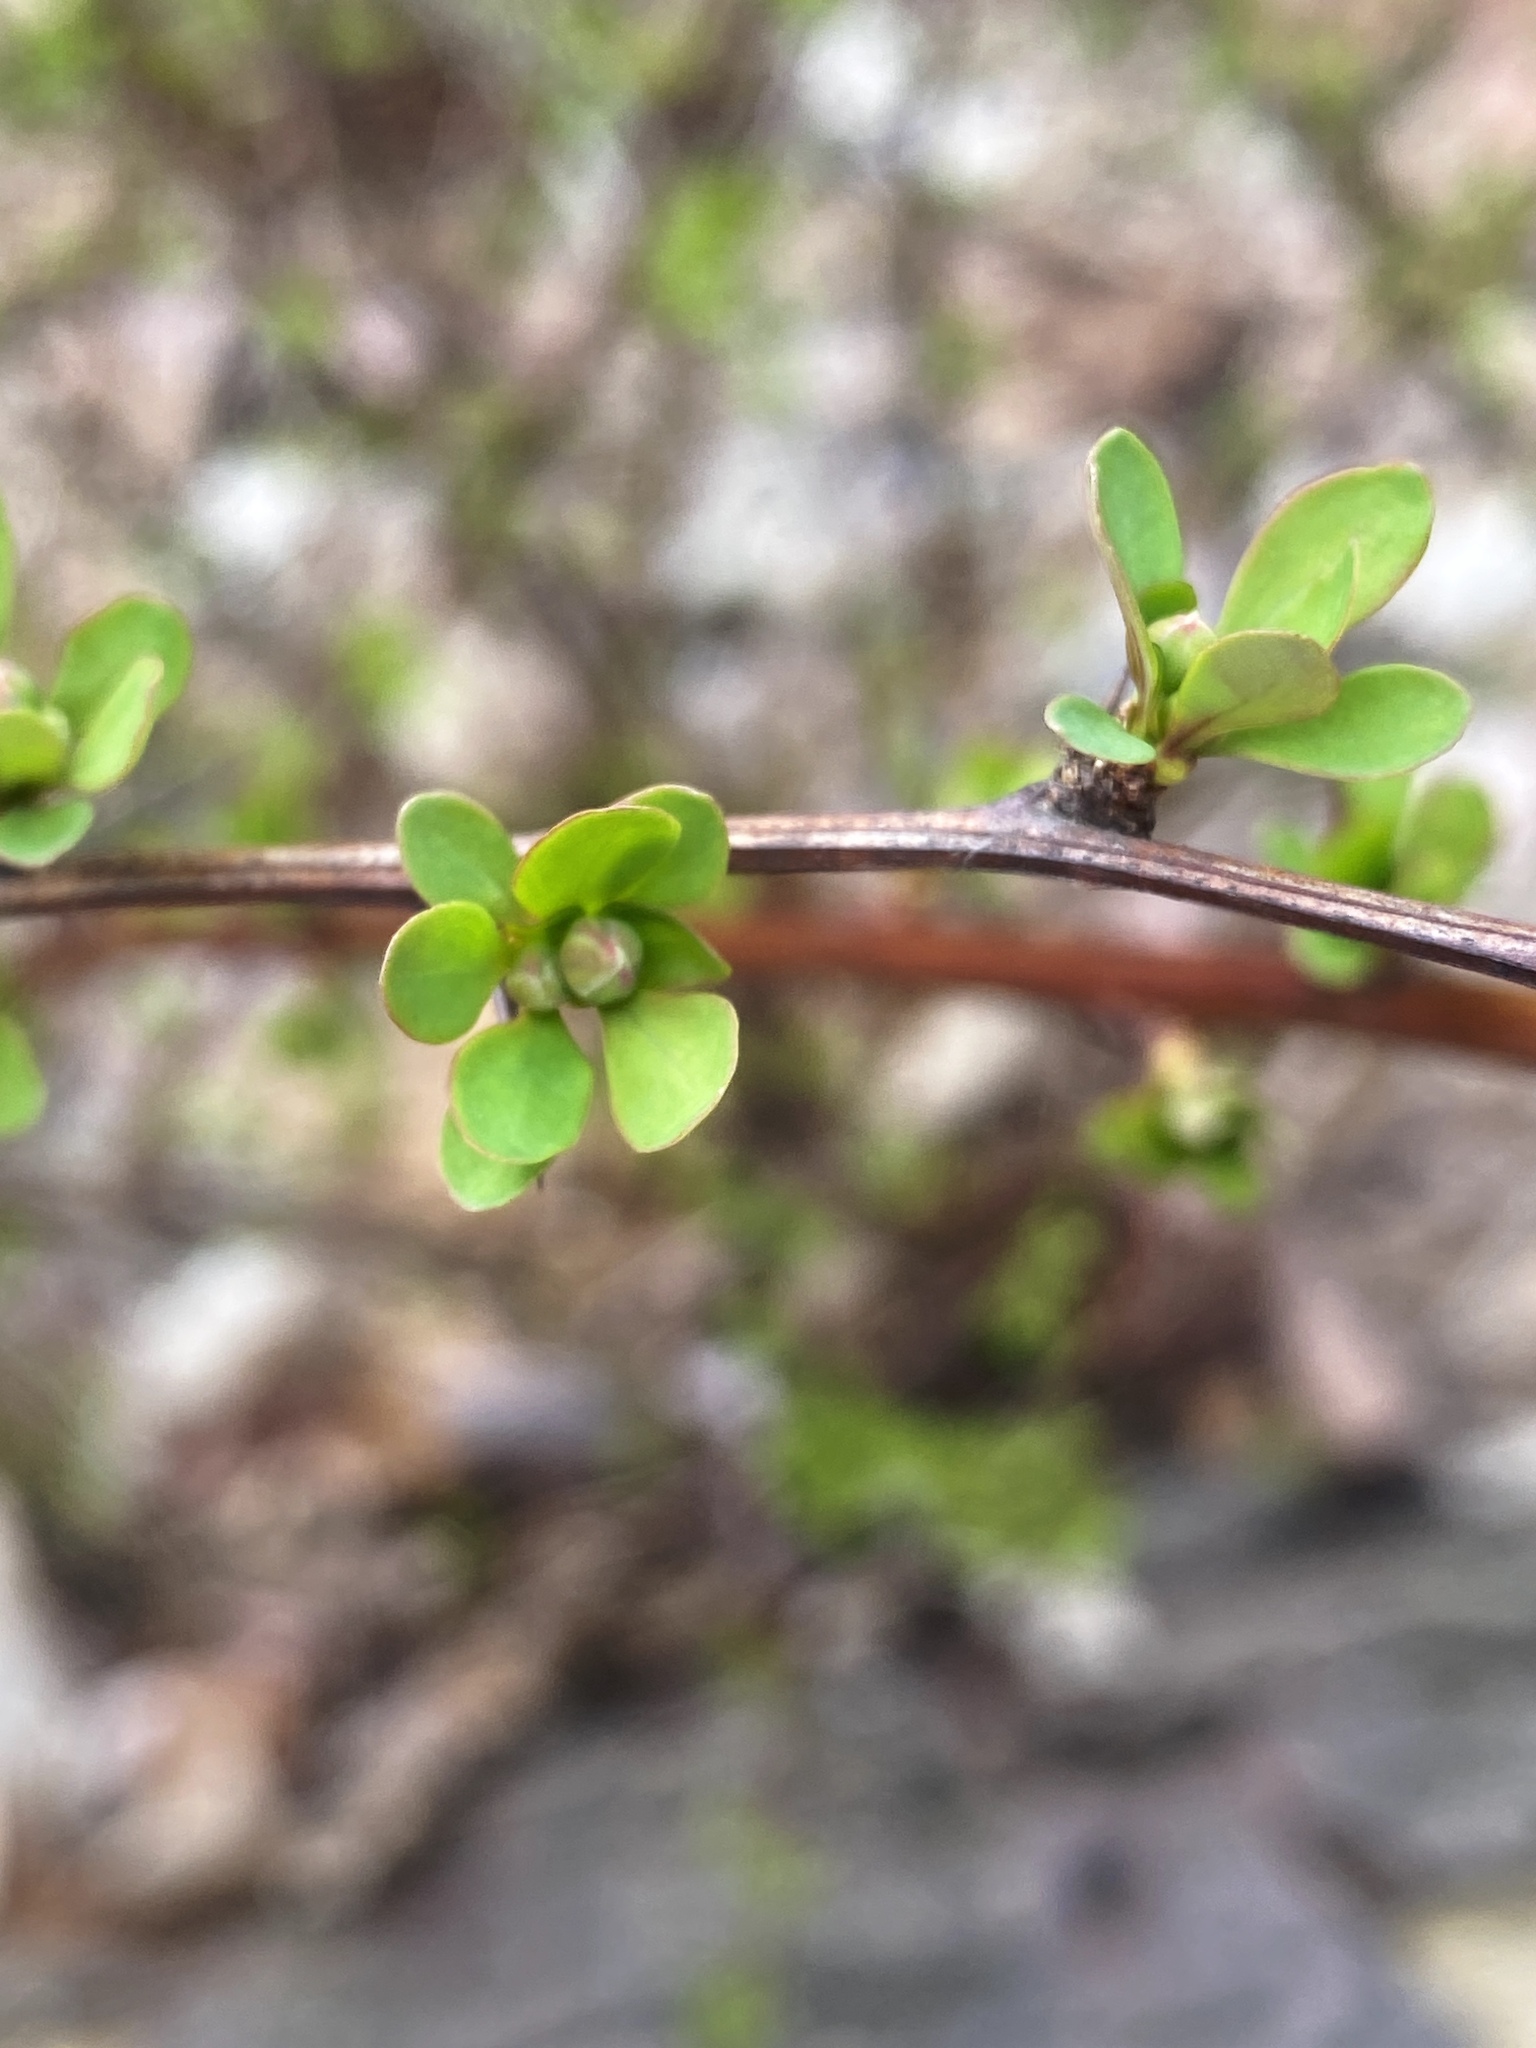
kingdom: Plantae
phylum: Tracheophyta
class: Magnoliopsida
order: Ranunculales
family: Berberidaceae
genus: Berberis
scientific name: Berberis thunbergii
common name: Japanese barberry
